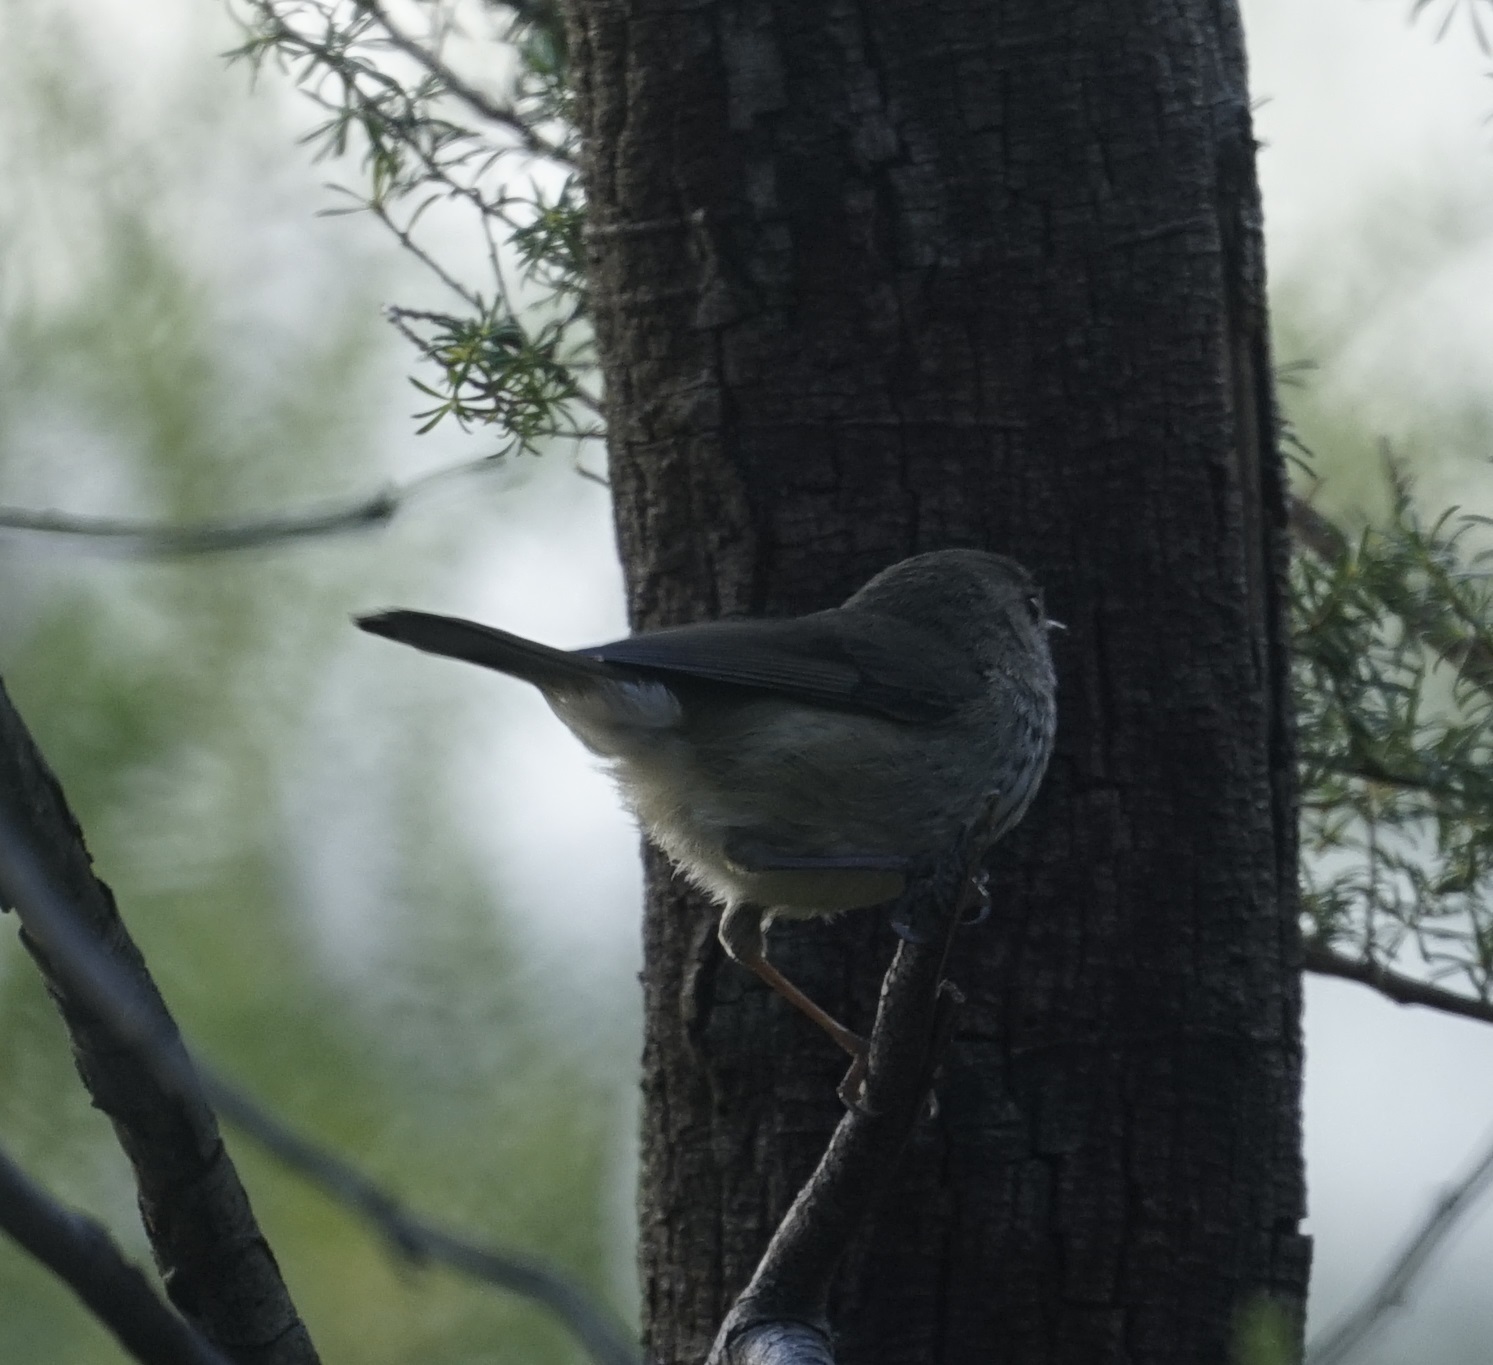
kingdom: Animalia
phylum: Chordata
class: Aves
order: Passeriformes
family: Acanthizidae
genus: Acanthiza
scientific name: Acanthiza pusilla
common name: Brown thornbill
